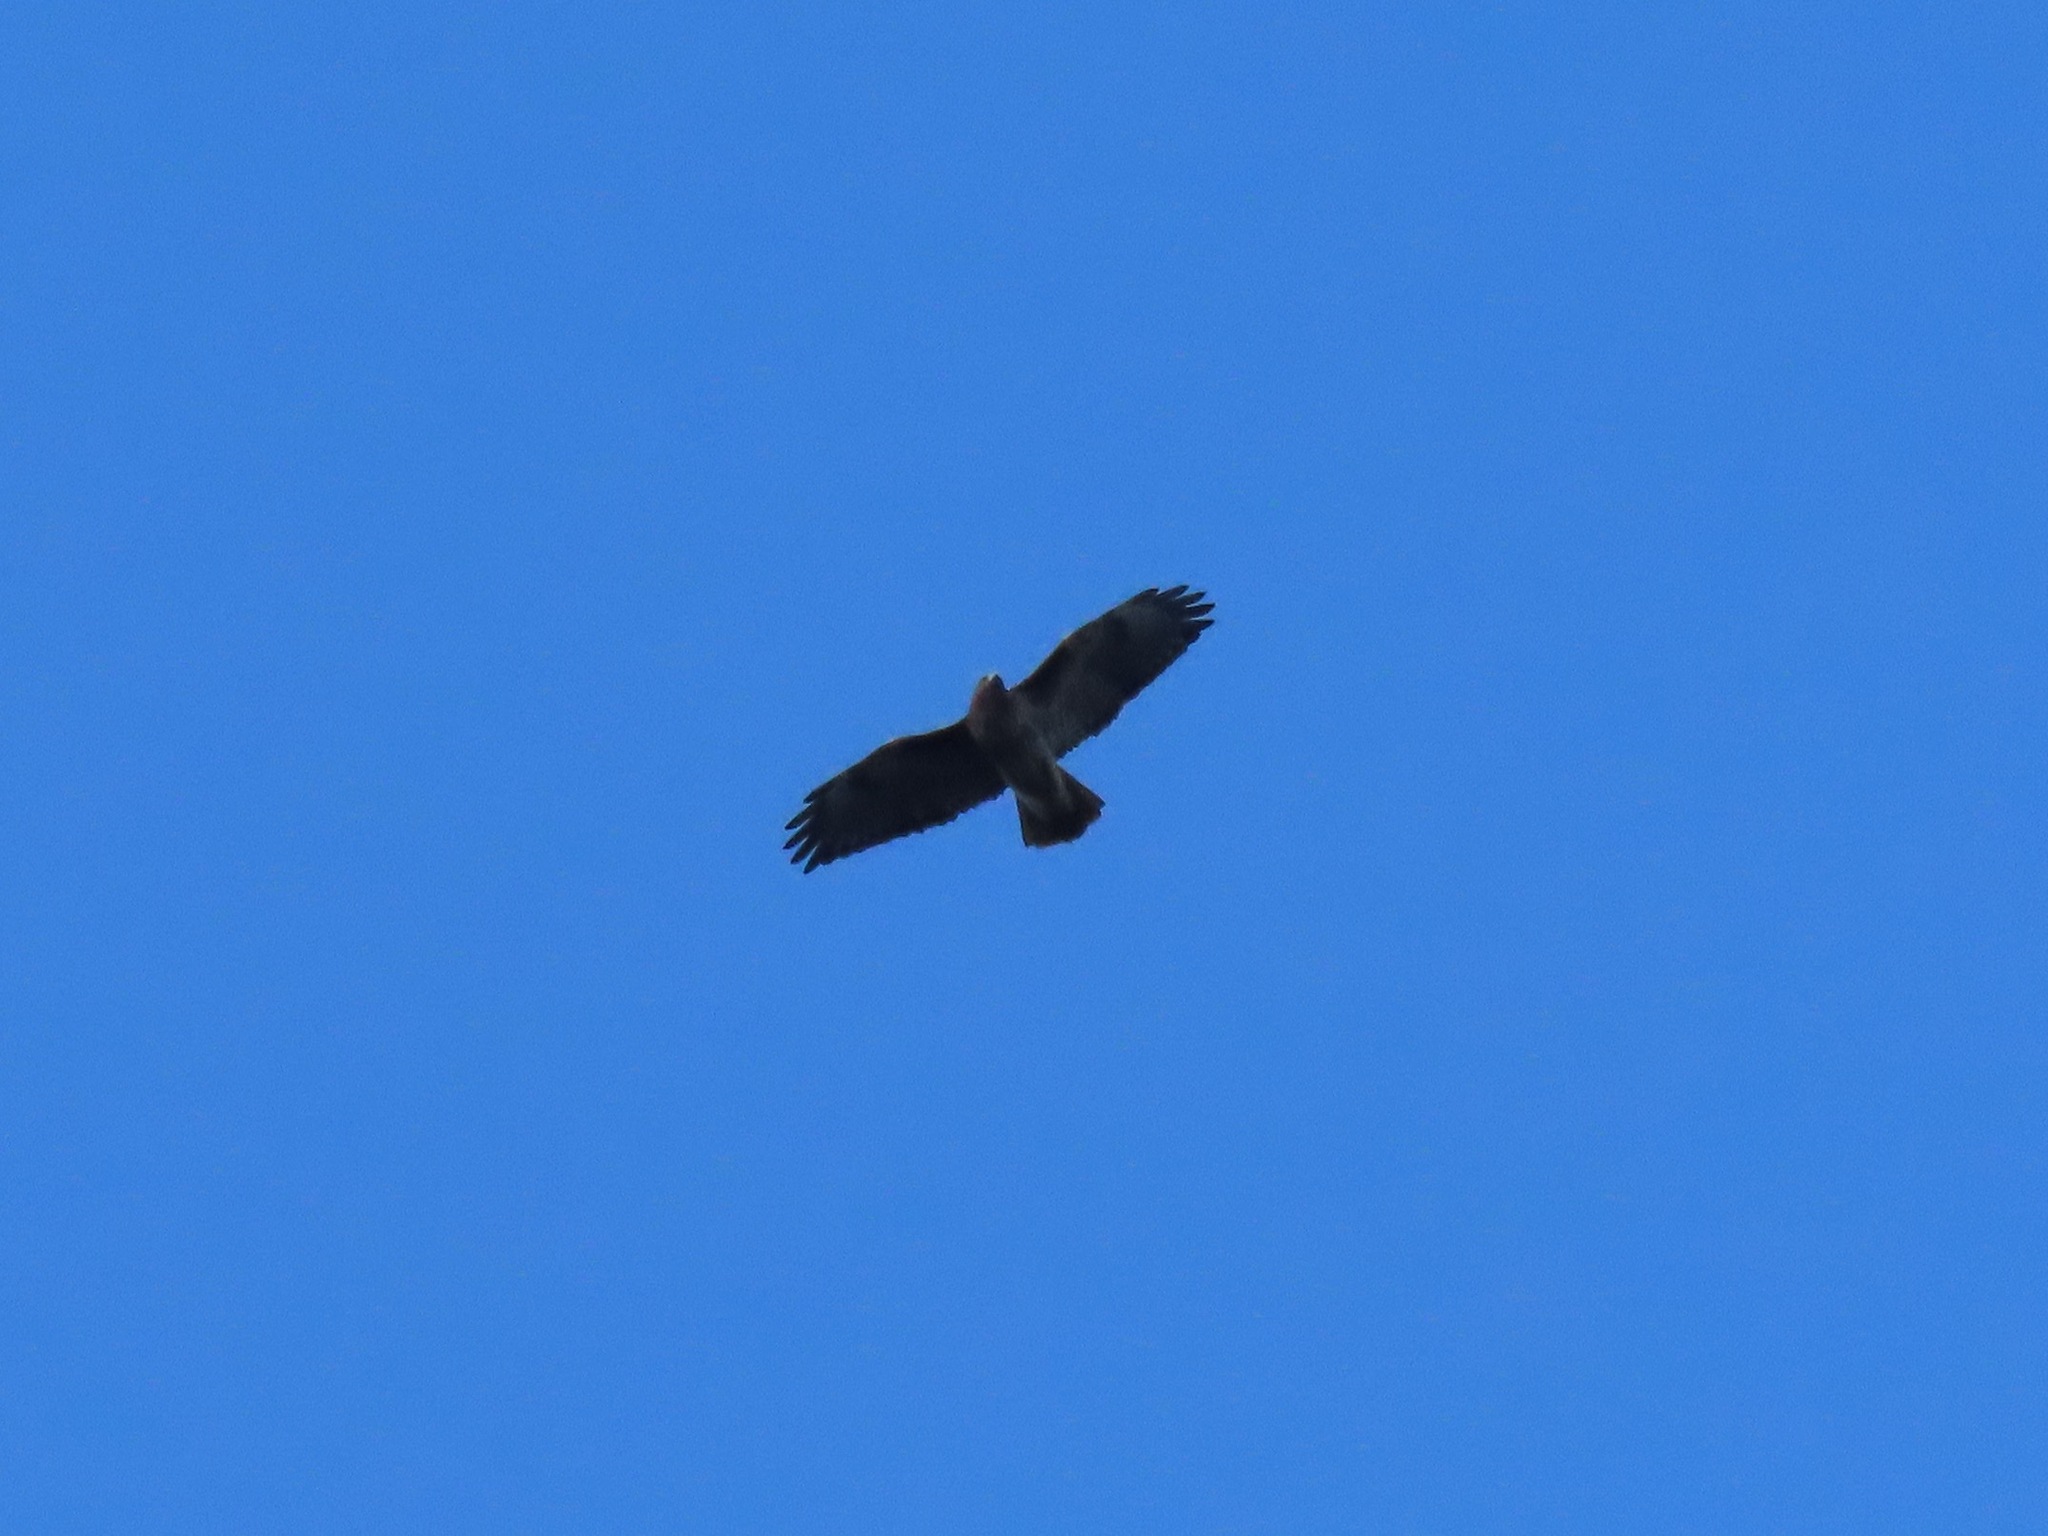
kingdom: Animalia
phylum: Chordata
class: Aves
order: Accipitriformes
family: Accipitridae
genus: Buteo
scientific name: Buteo jamaicensis
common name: Red-tailed hawk
